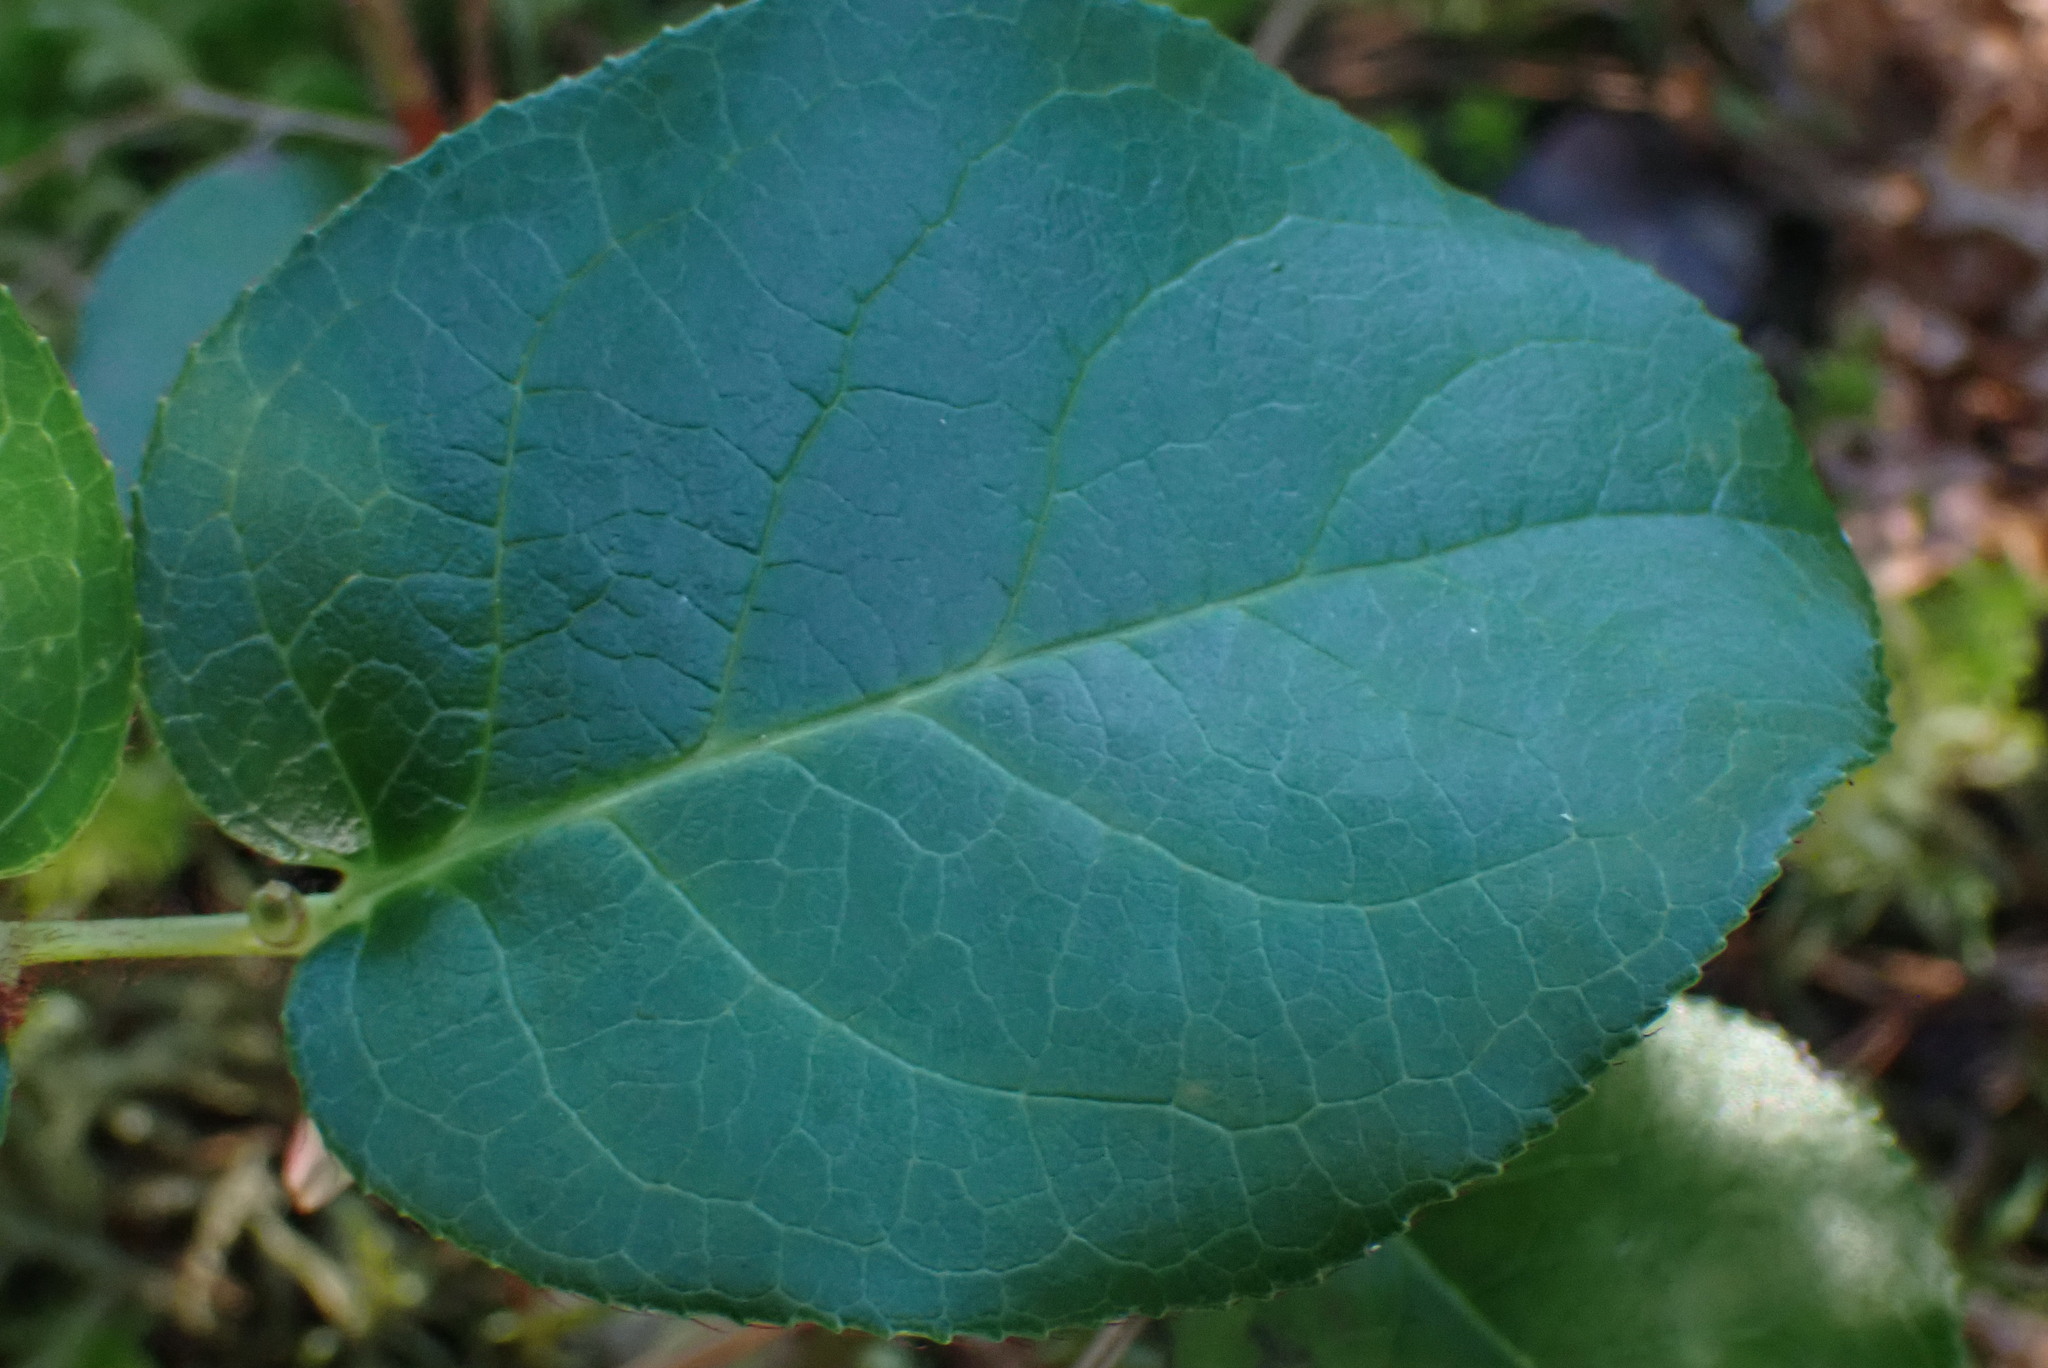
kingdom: Plantae
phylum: Tracheophyta
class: Magnoliopsida
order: Ericales
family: Ericaceae
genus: Gaultheria
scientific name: Gaultheria shallon
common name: Shallon
